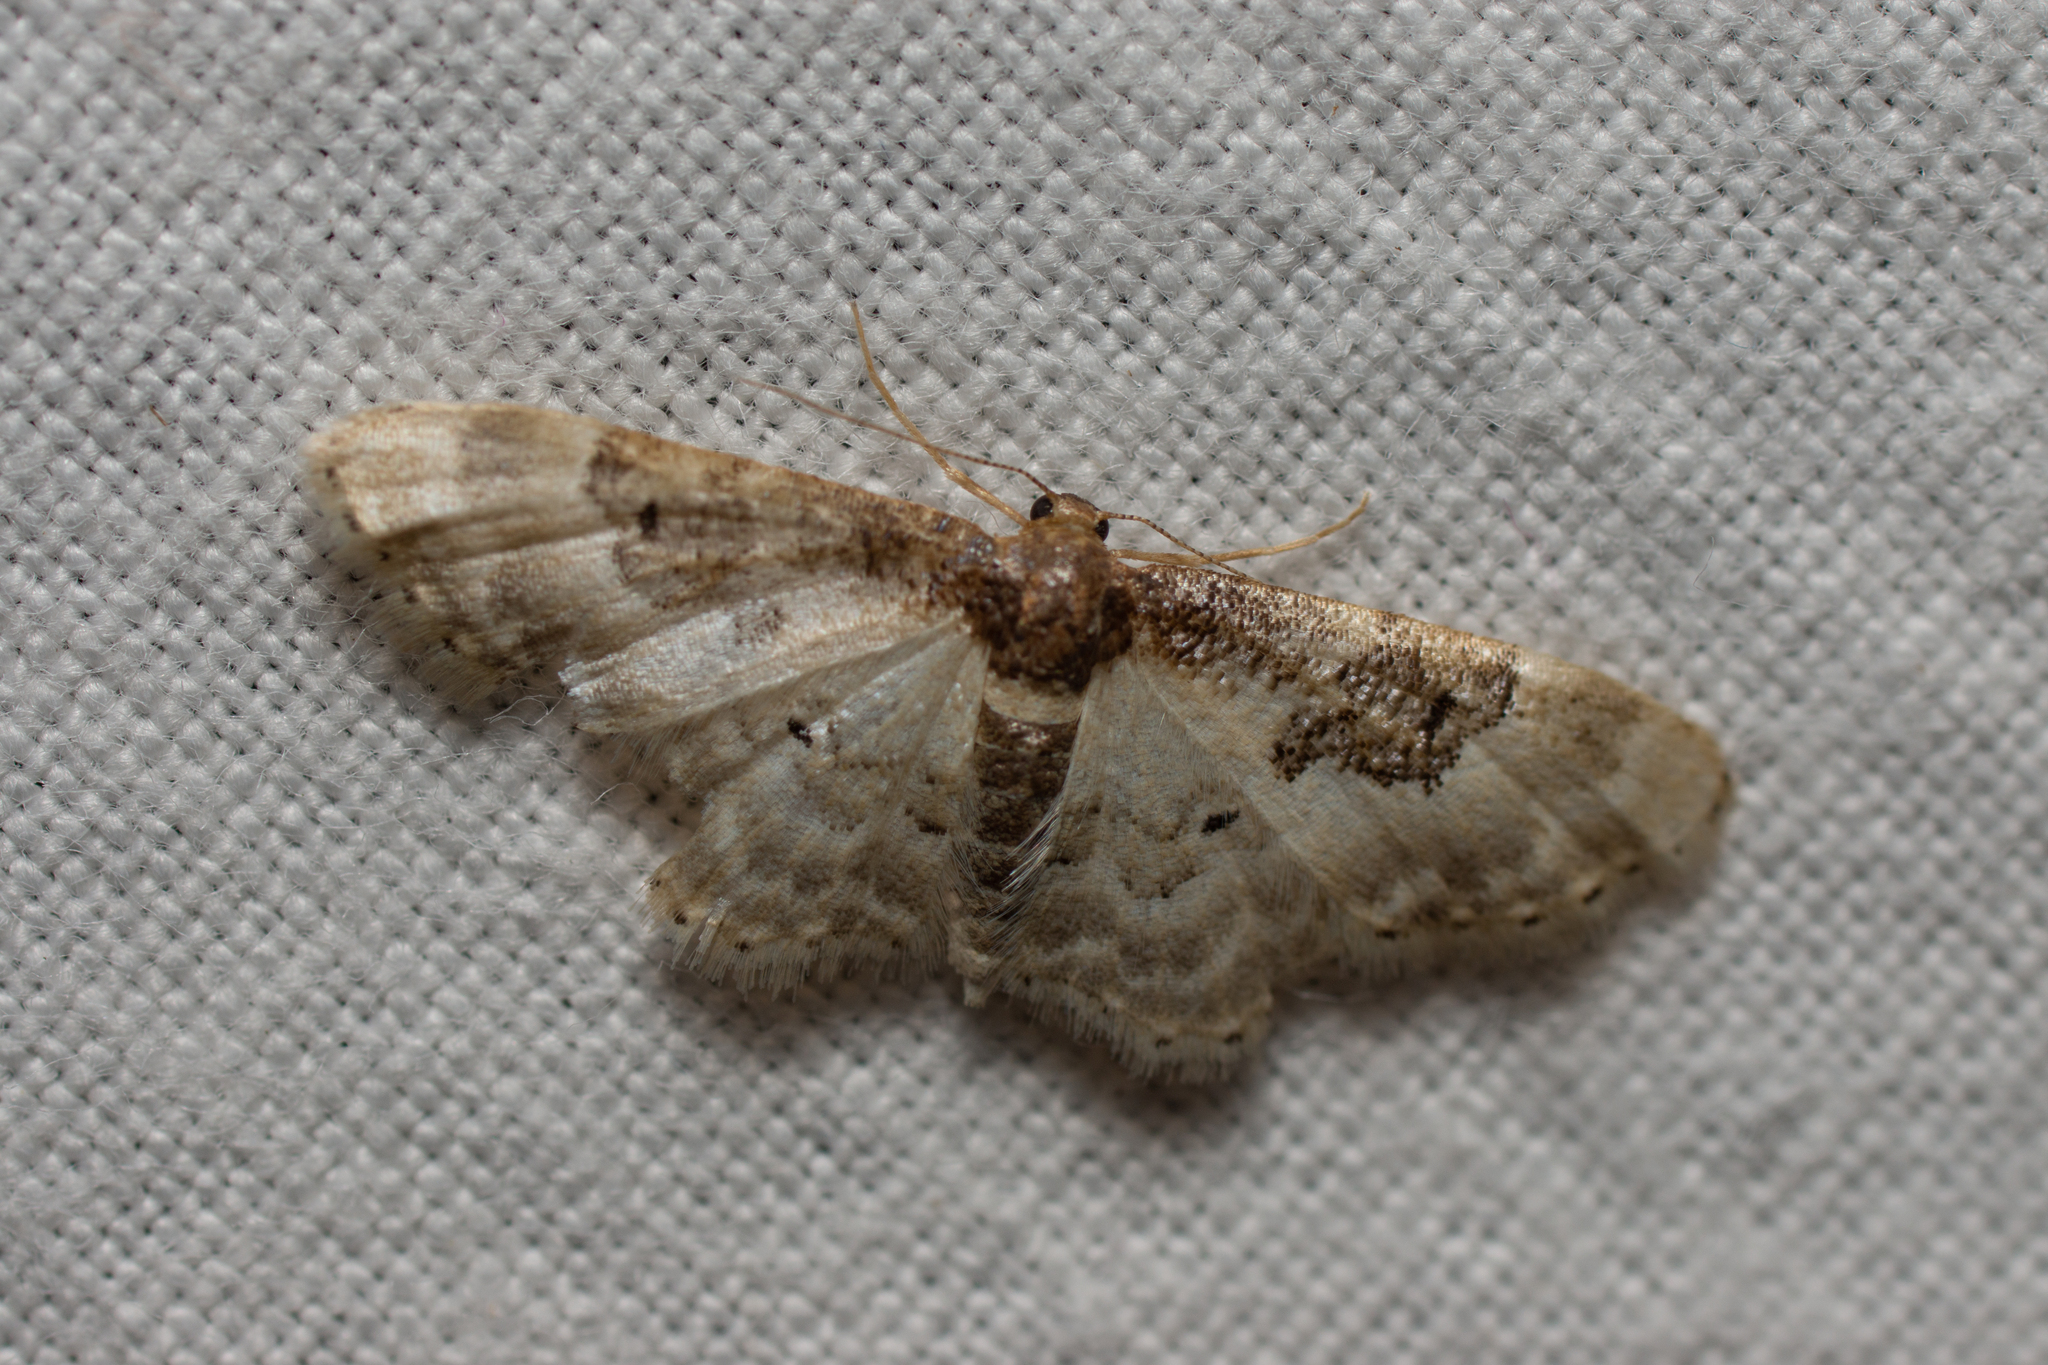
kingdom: Animalia
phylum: Arthropoda
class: Insecta
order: Lepidoptera
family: Geometridae
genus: Idaea
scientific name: Idaea rusticata
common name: Least carpet
